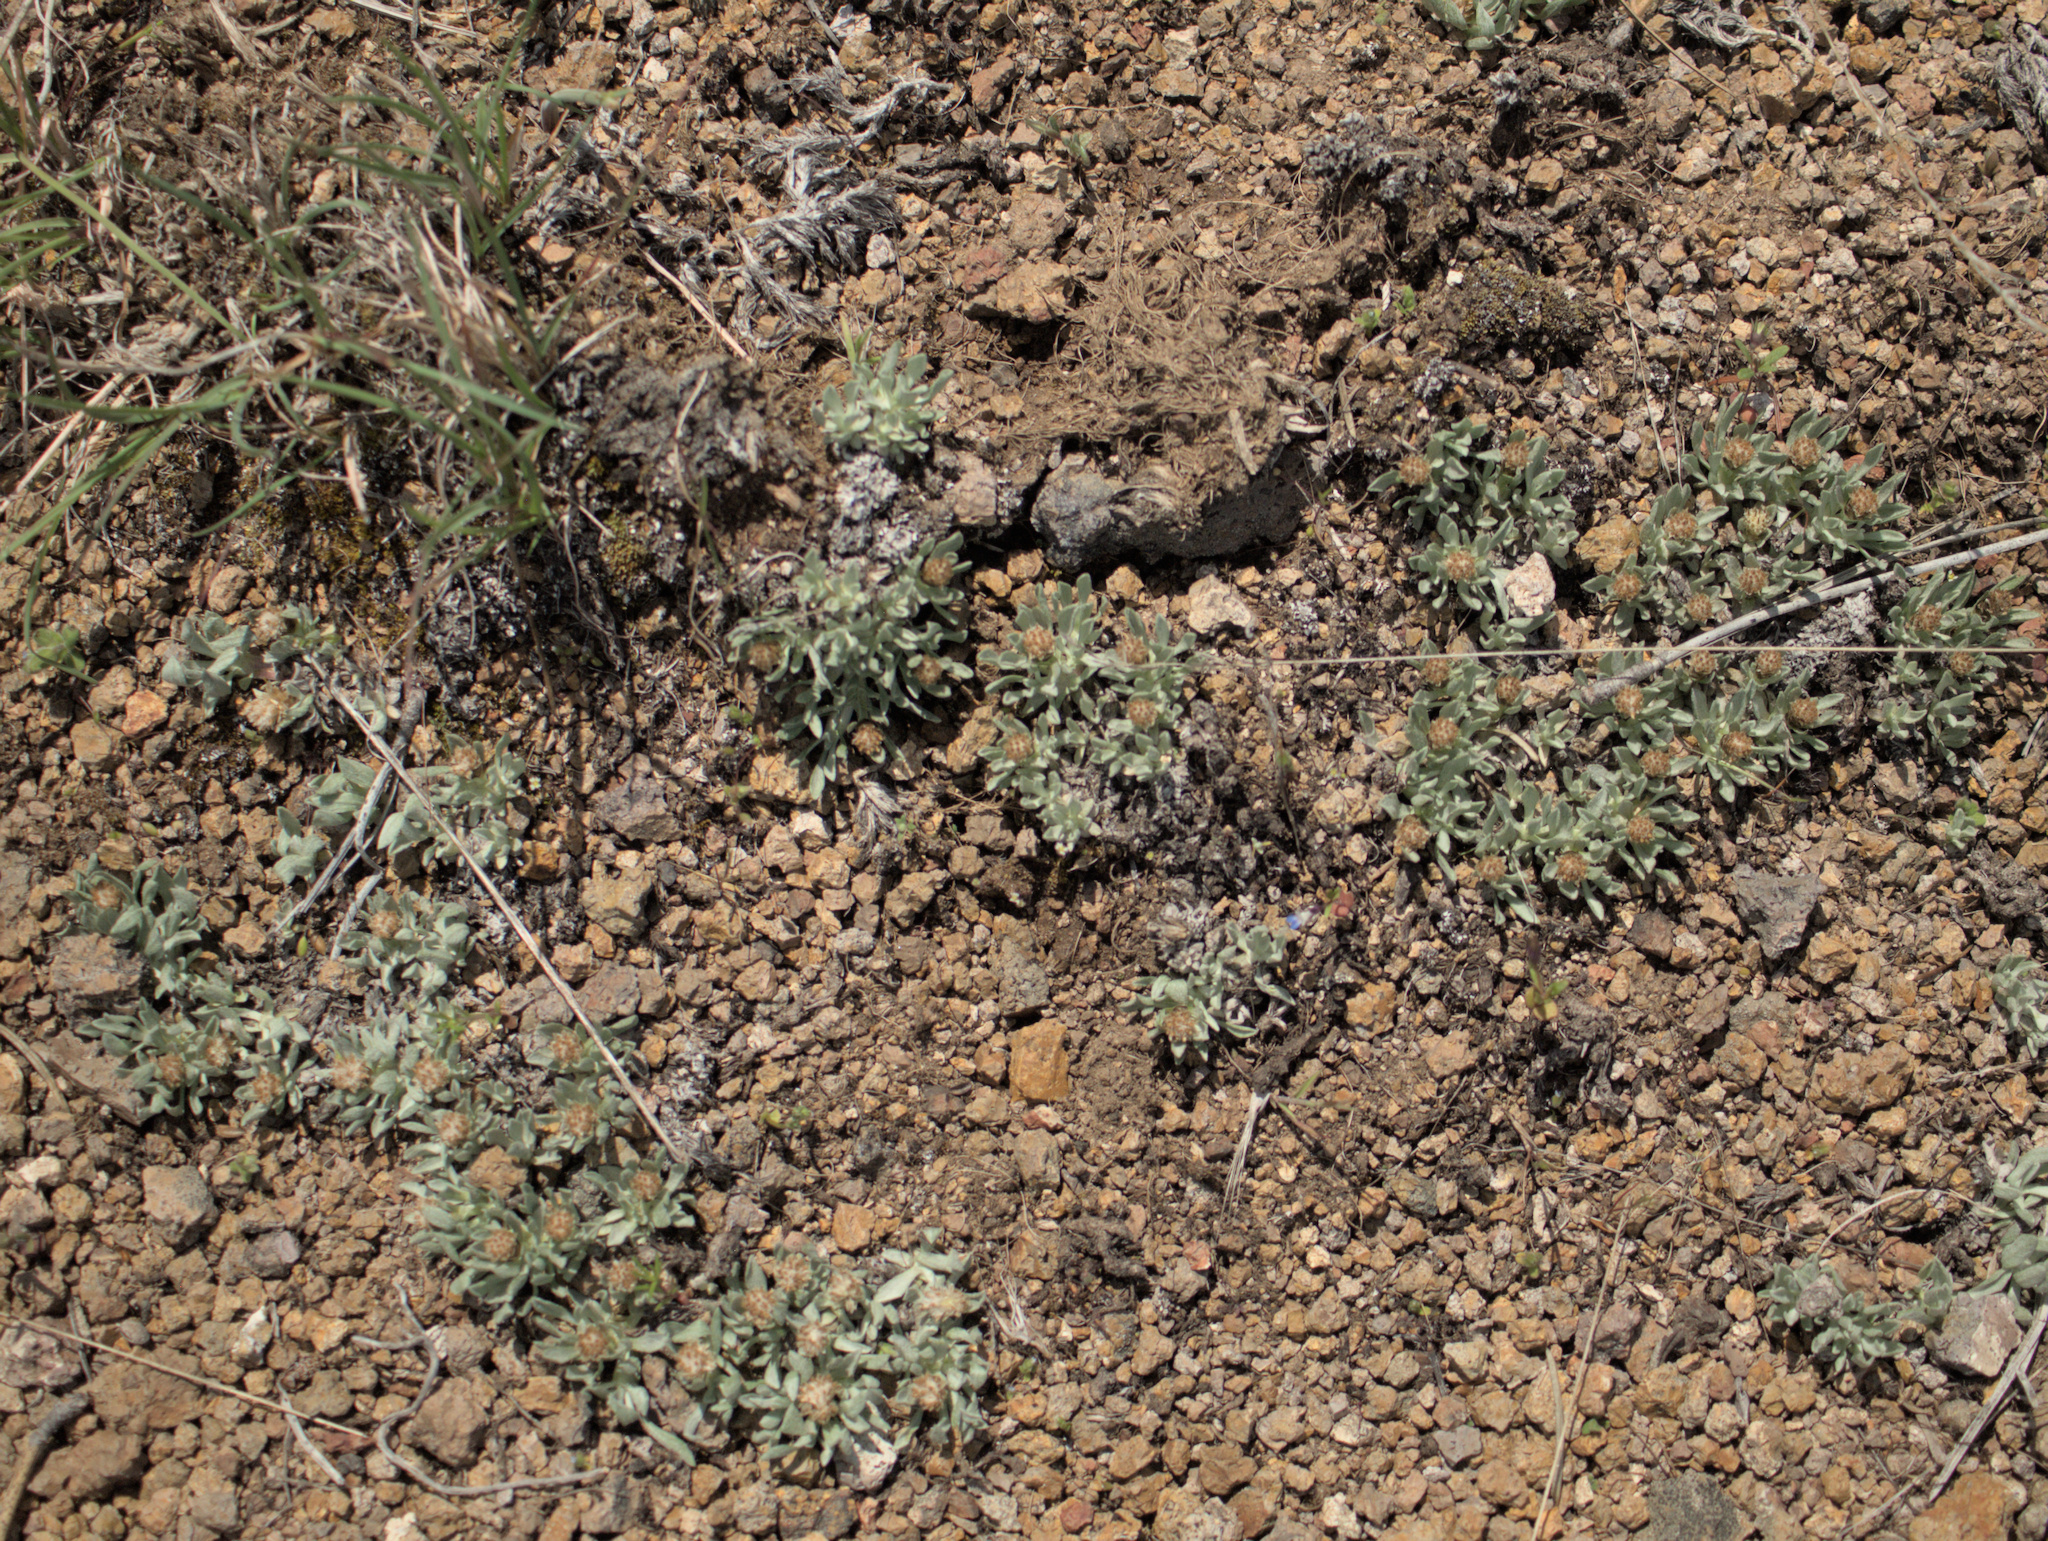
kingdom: Plantae
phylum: Tracheophyta
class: Magnoliopsida
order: Asterales
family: Asteraceae
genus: Antennaria
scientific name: Antennaria dimorpha
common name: Cushion pussytoes
